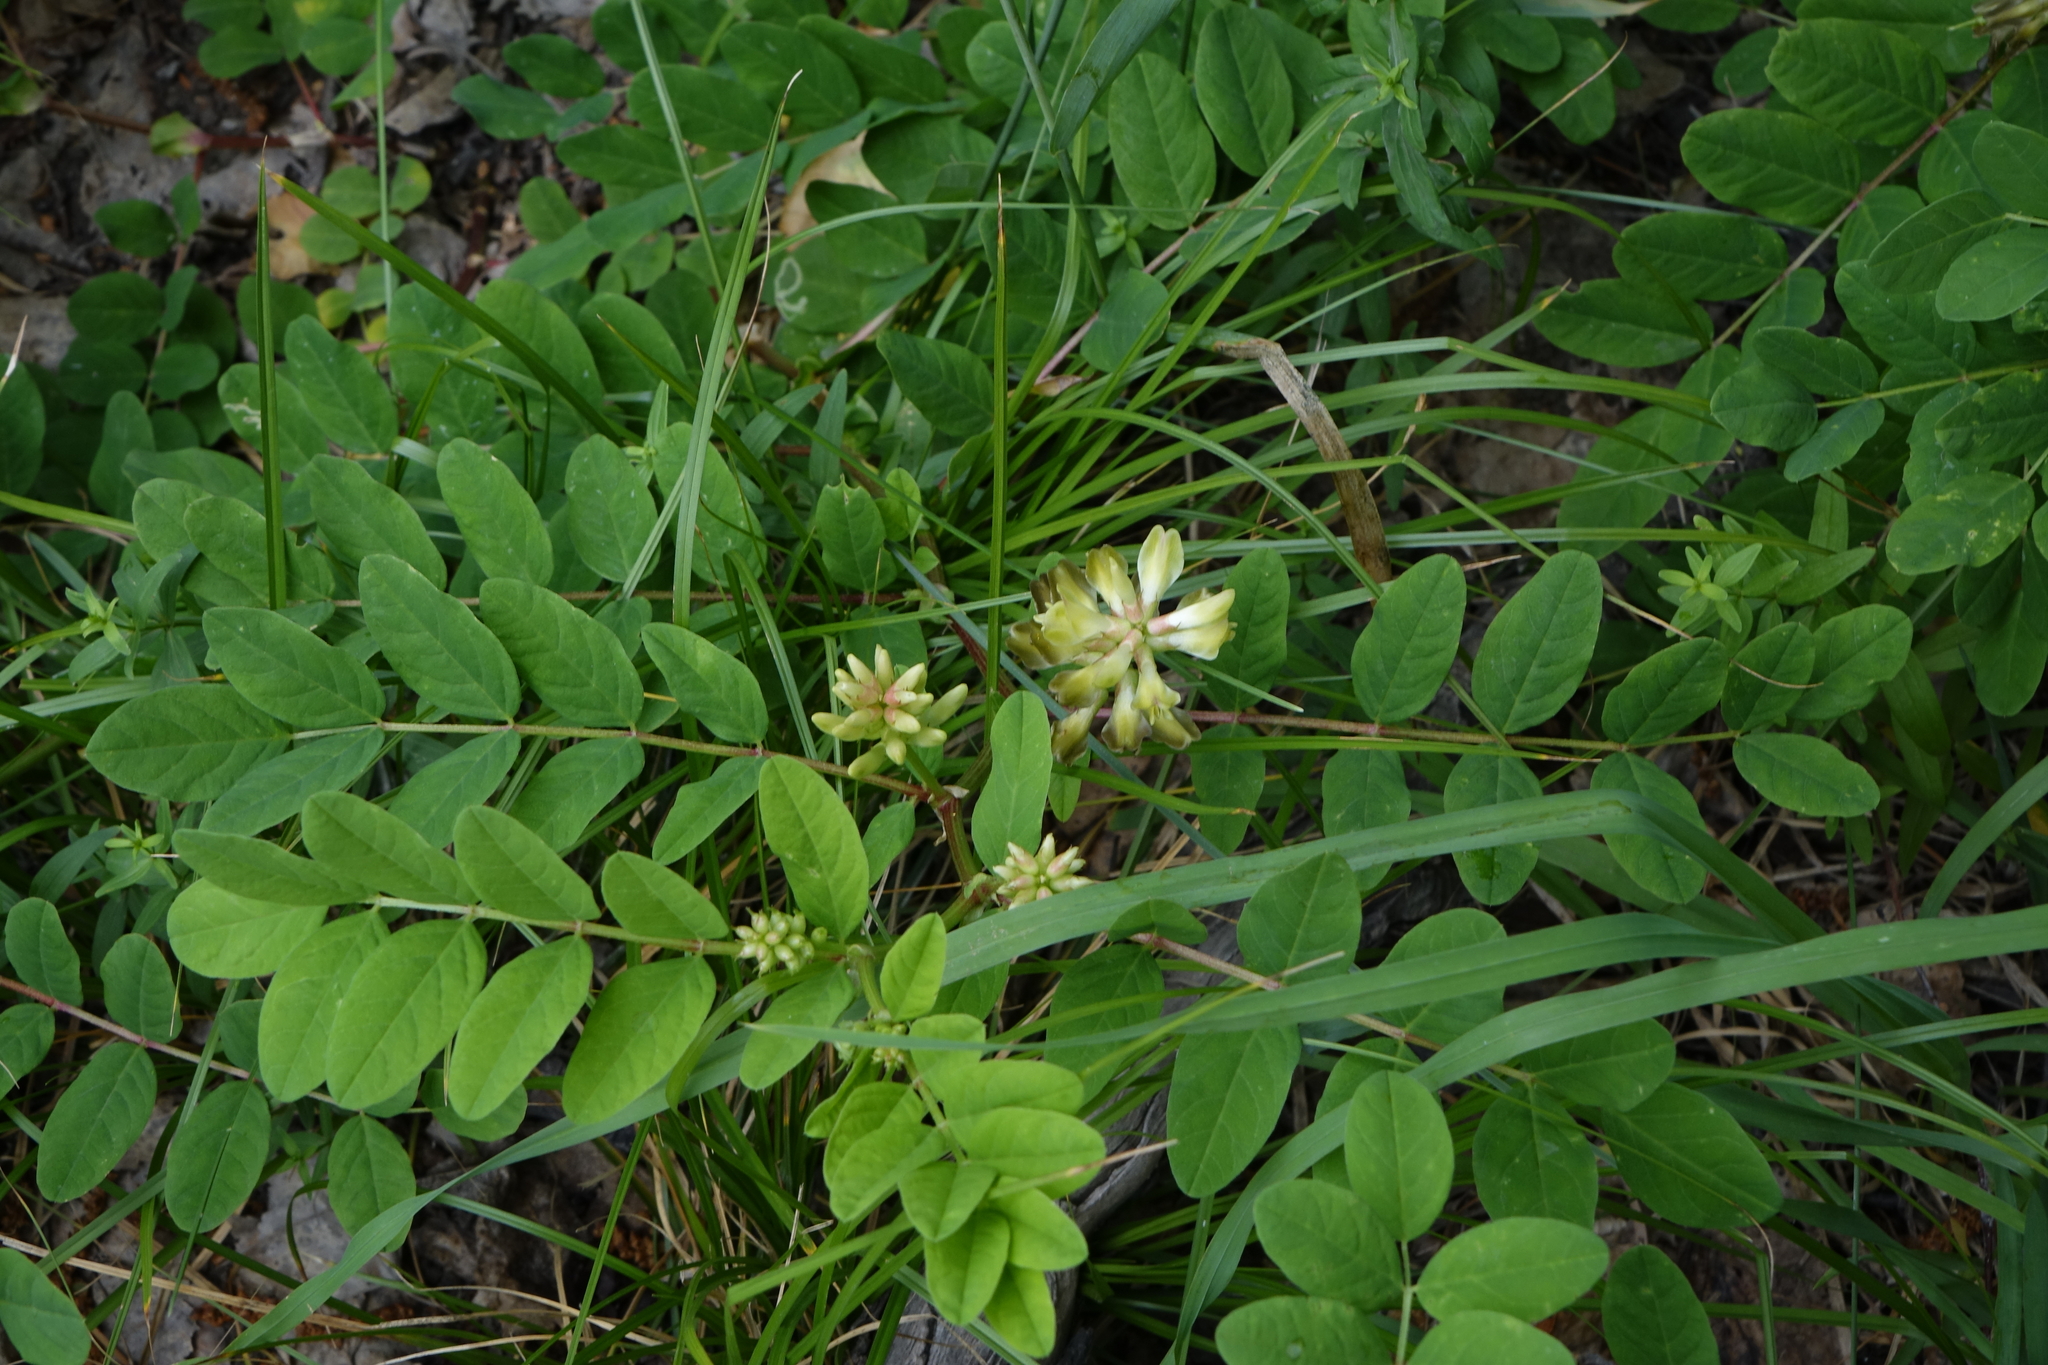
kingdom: Plantae
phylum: Tracheophyta
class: Magnoliopsida
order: Fabales
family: Fabaceae
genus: Astragalus
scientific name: Astragalus glycyphyllos
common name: Wild liquorice
